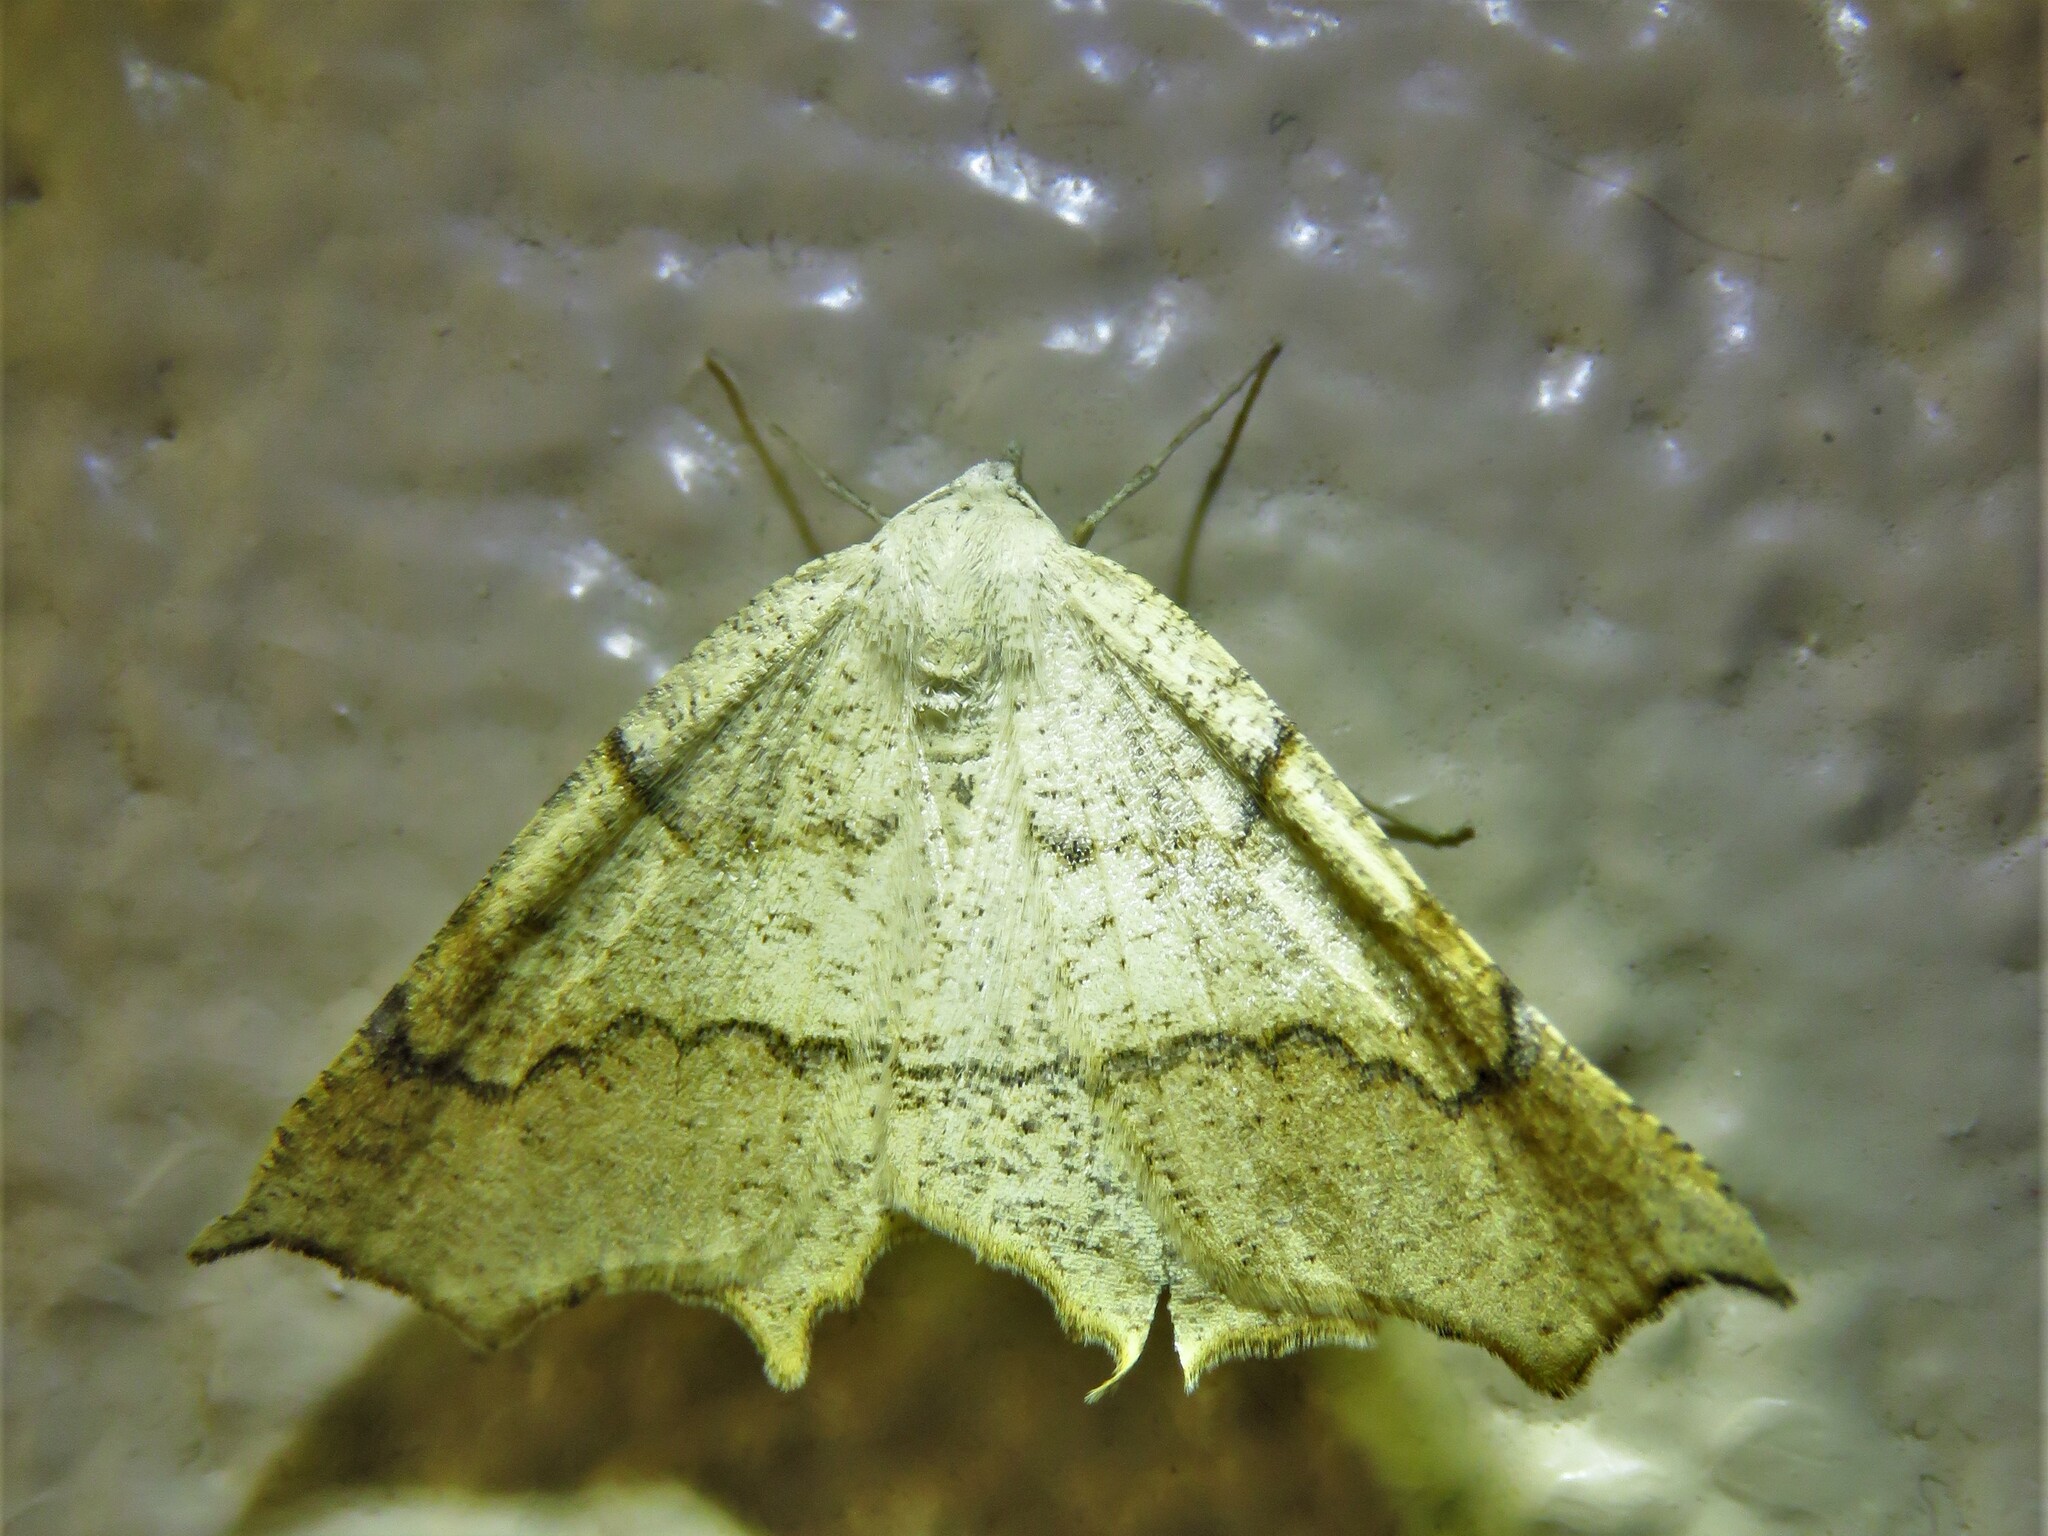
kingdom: Animalia
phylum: Arthropoda
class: Insecta
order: Lepidoptera
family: Geometridae
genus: Eriplatymetra
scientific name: Eriplatymetra grotearia
